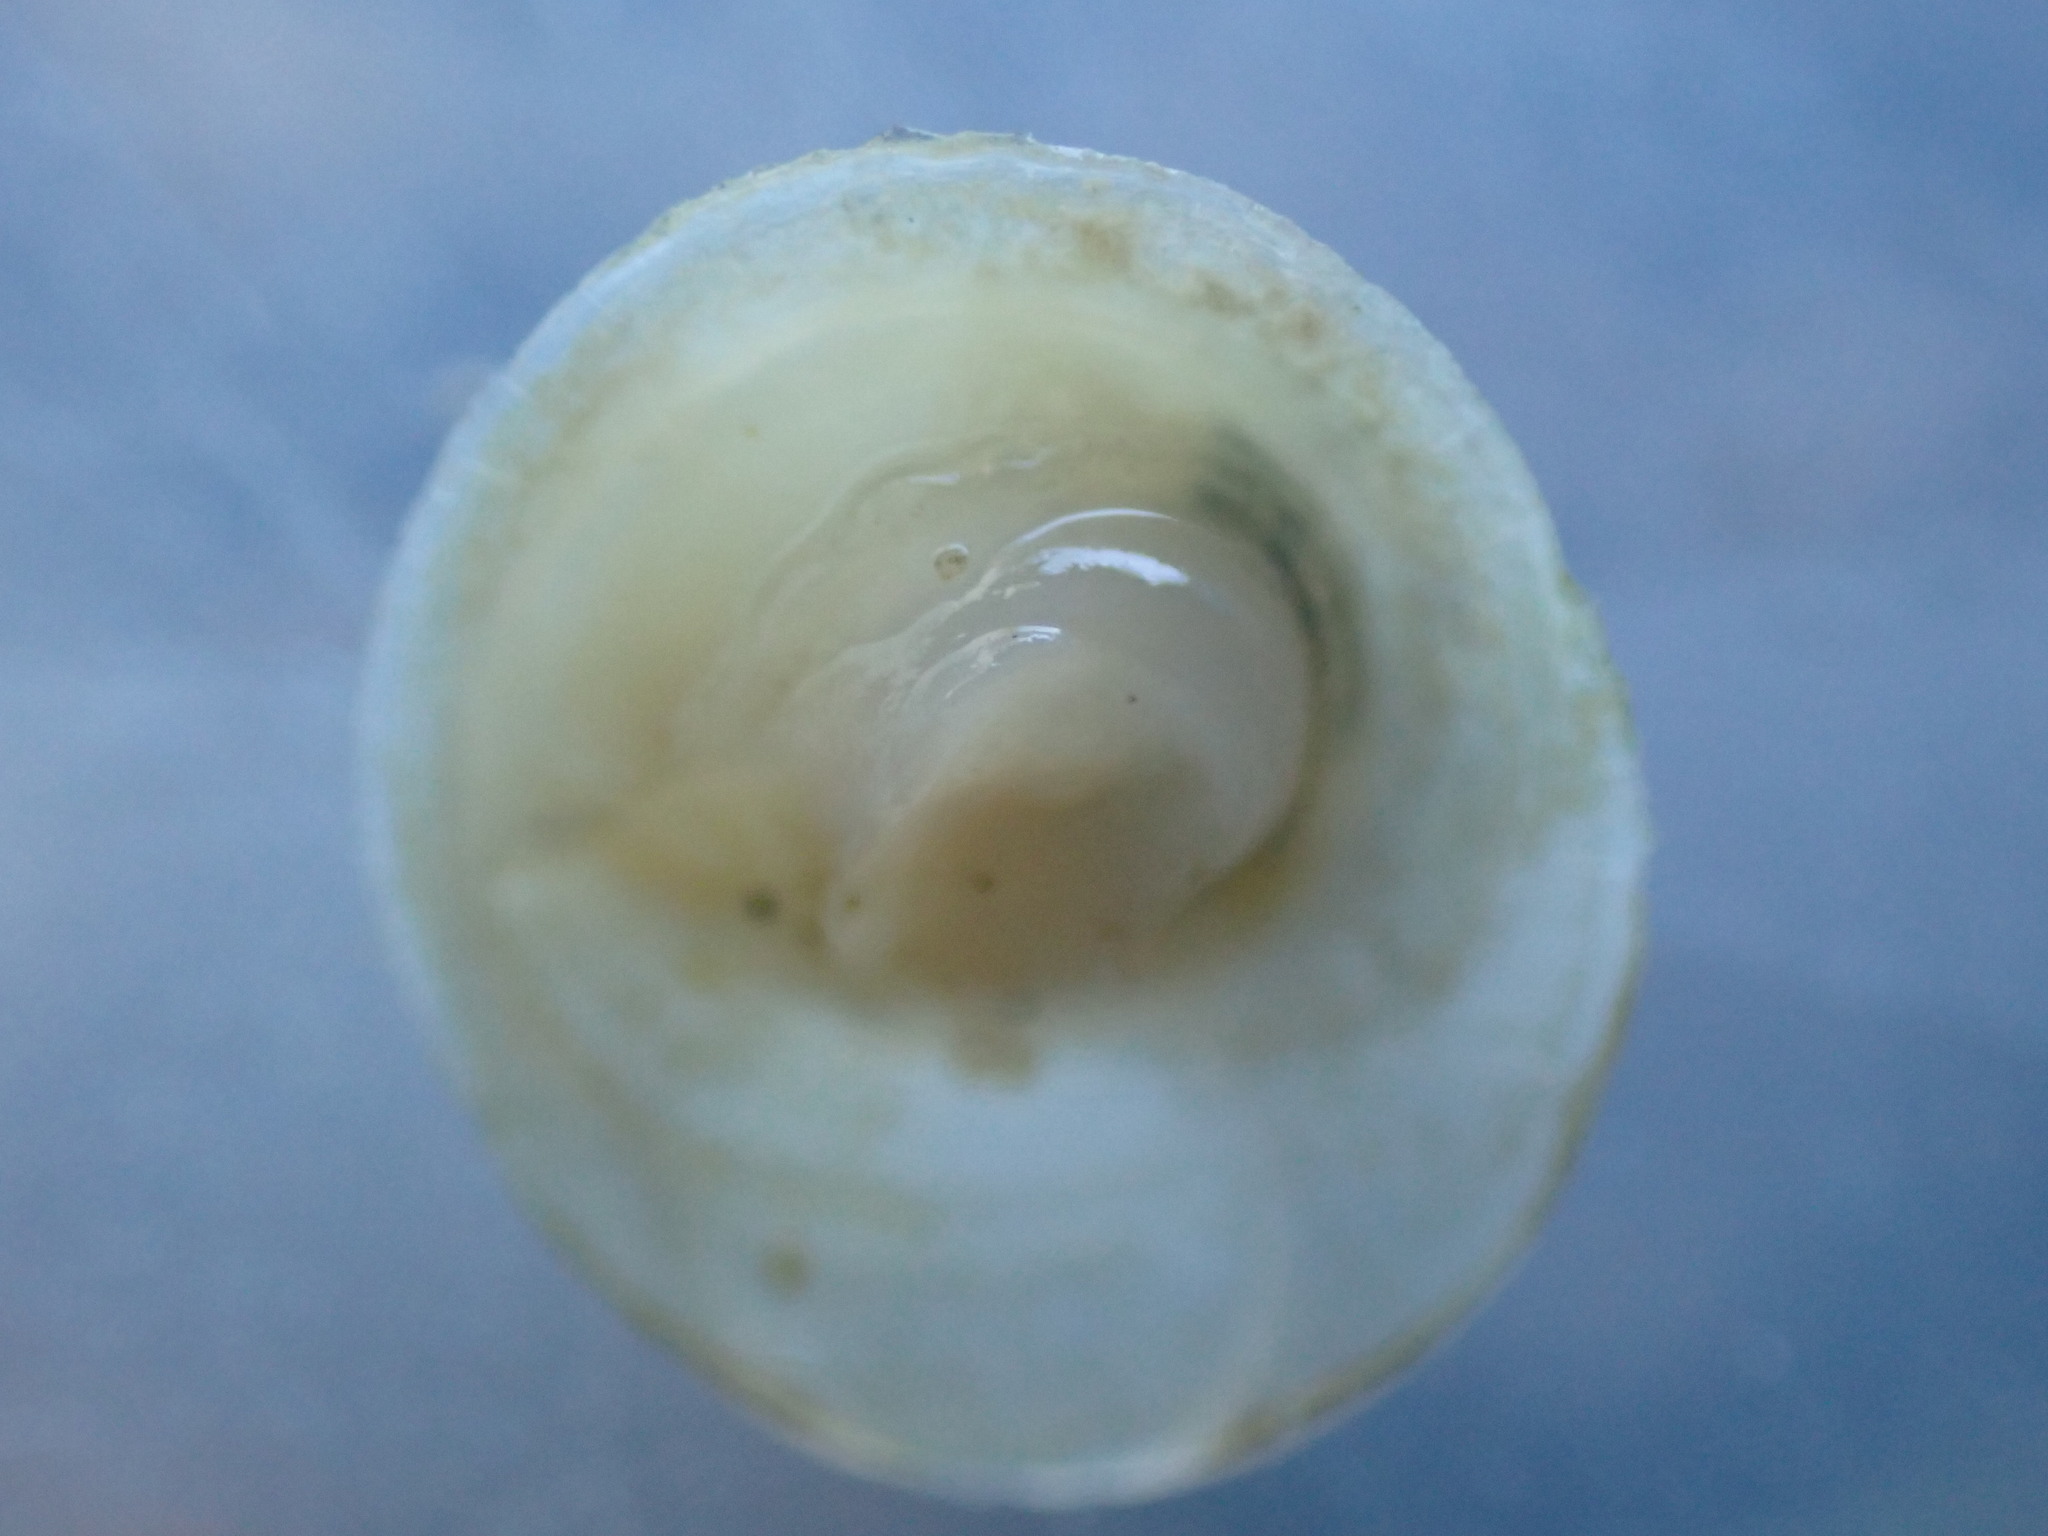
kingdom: Animalia
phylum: Mollusca
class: Gastropoda
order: Littorinimorpha
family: Calyptraeidae
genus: Sigapatella
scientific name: Sigapatella tenuis
